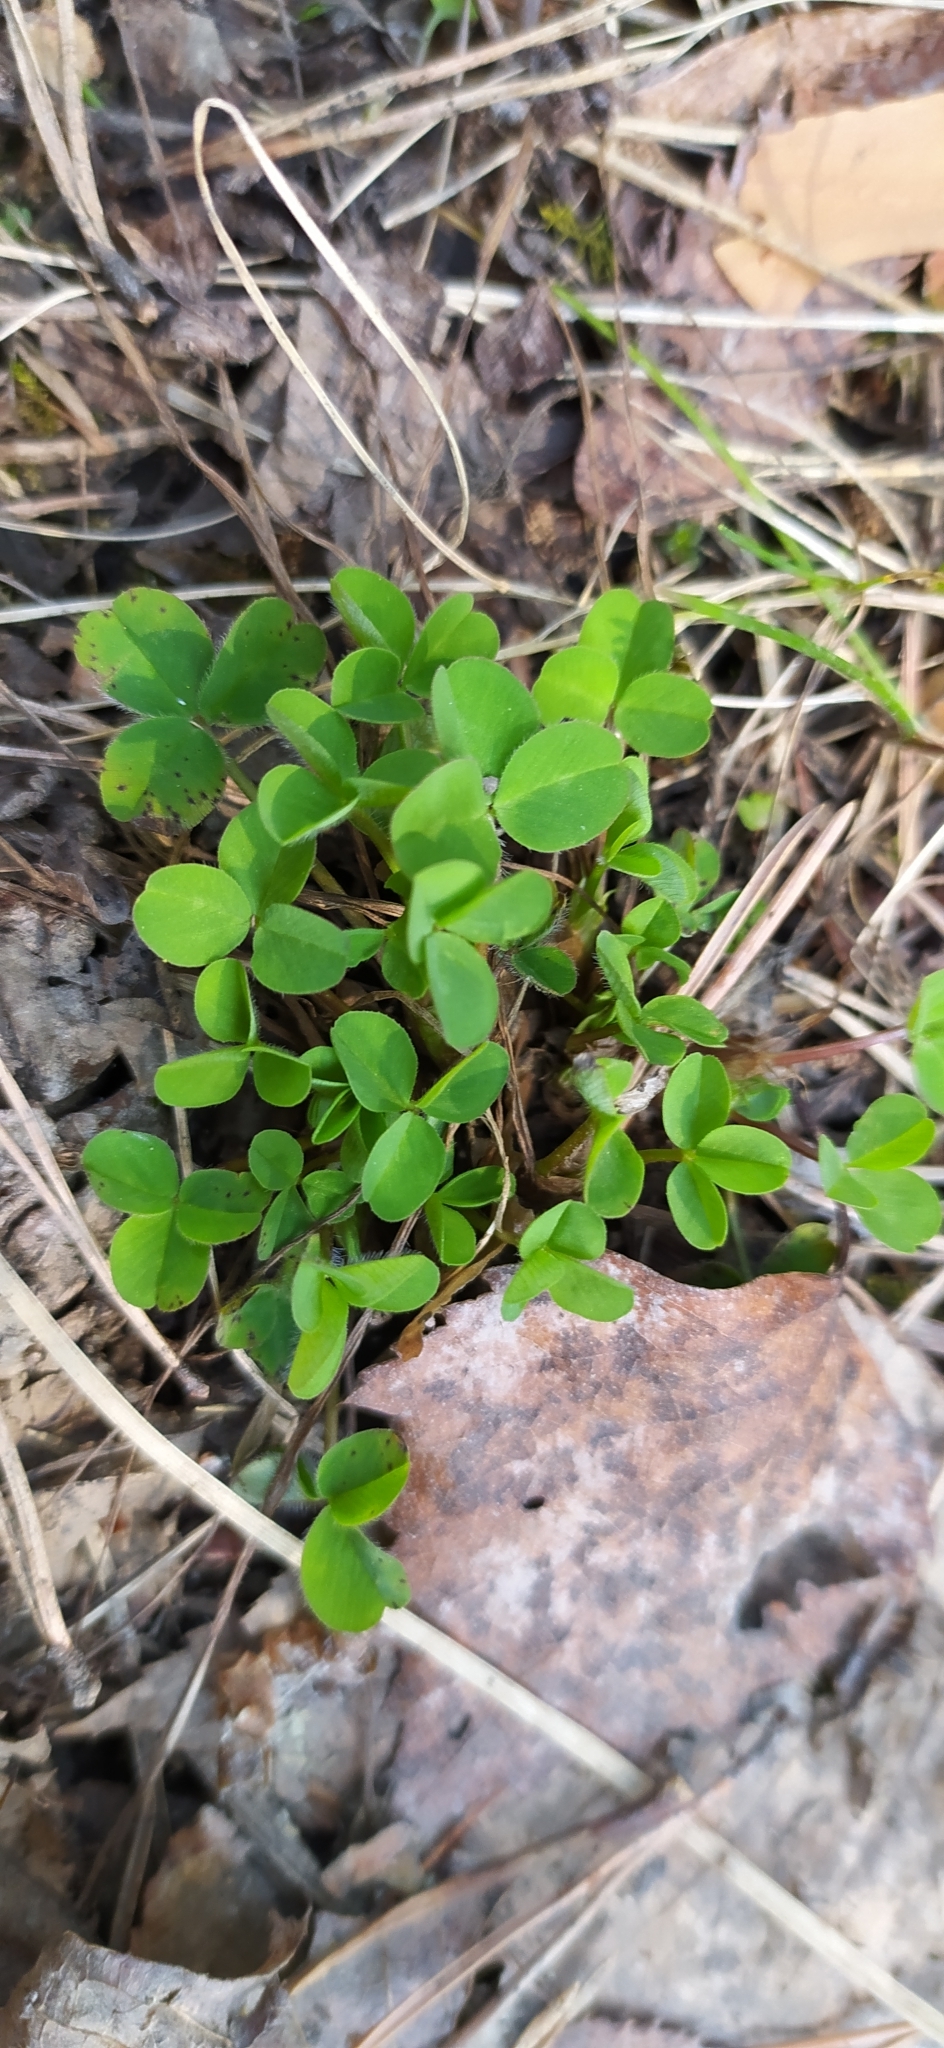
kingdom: Plantae
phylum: Tracheophyta
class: Magnoliopsida
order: Fabales
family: Fabaceae
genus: Trifolium
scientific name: Trifolium repens
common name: White clover
